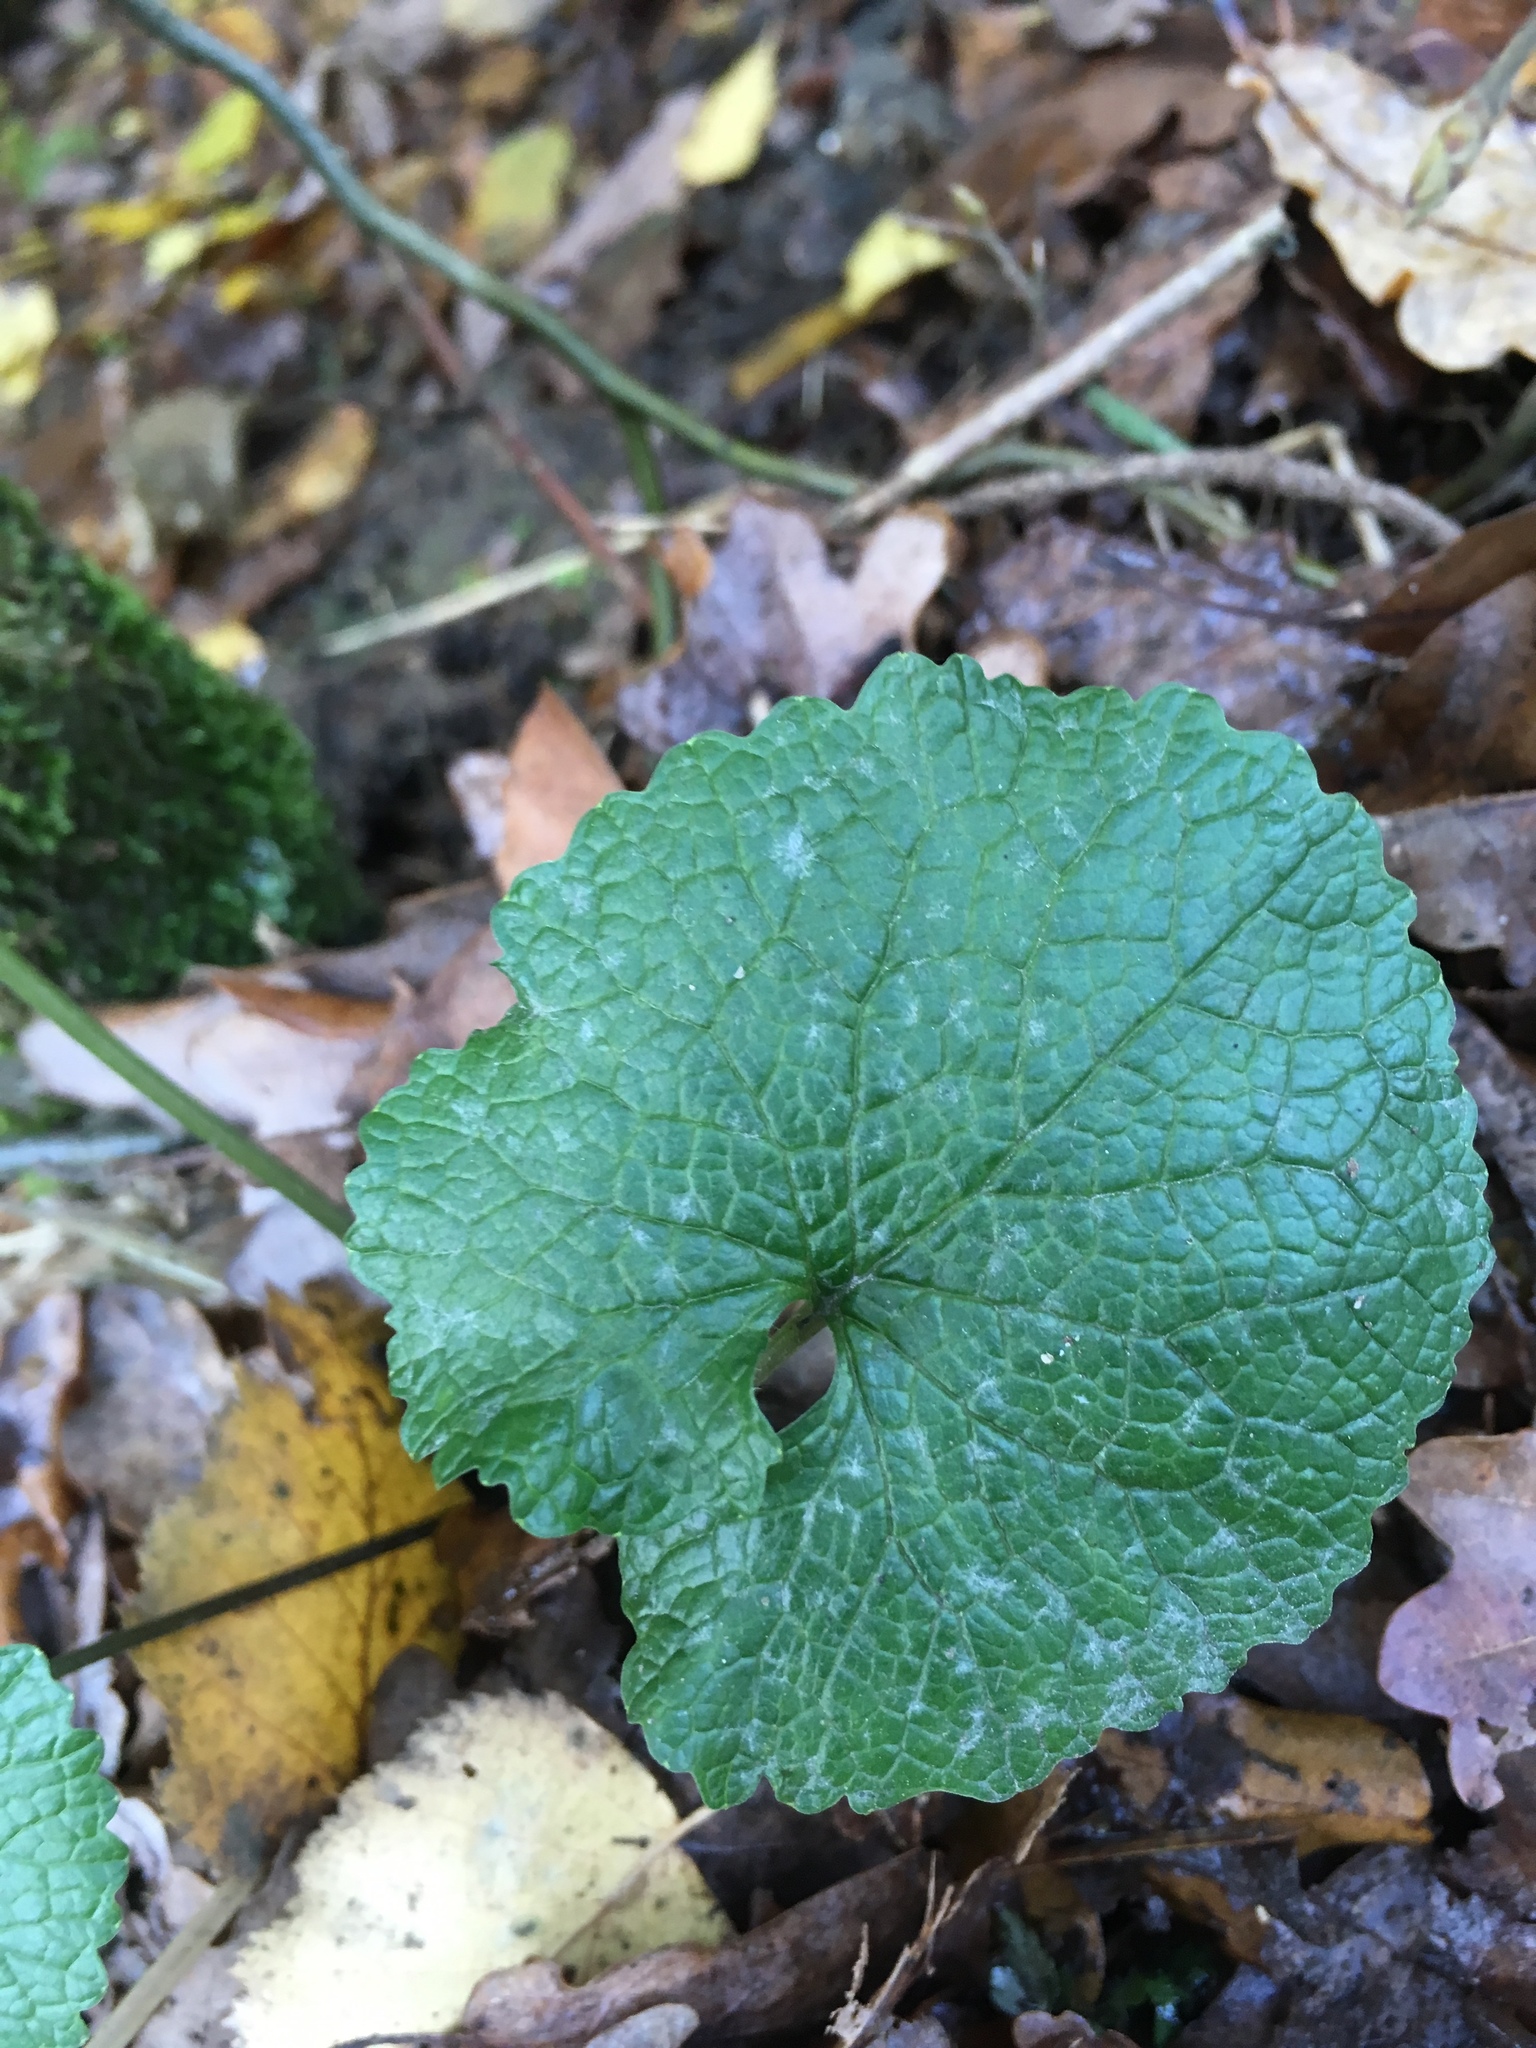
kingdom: Plantae
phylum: Tracheophyta
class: Magnoliopsida
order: Brassicales
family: Brassicaceae
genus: Alliaria
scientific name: Alliaria petiolata
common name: Garlic mustard
